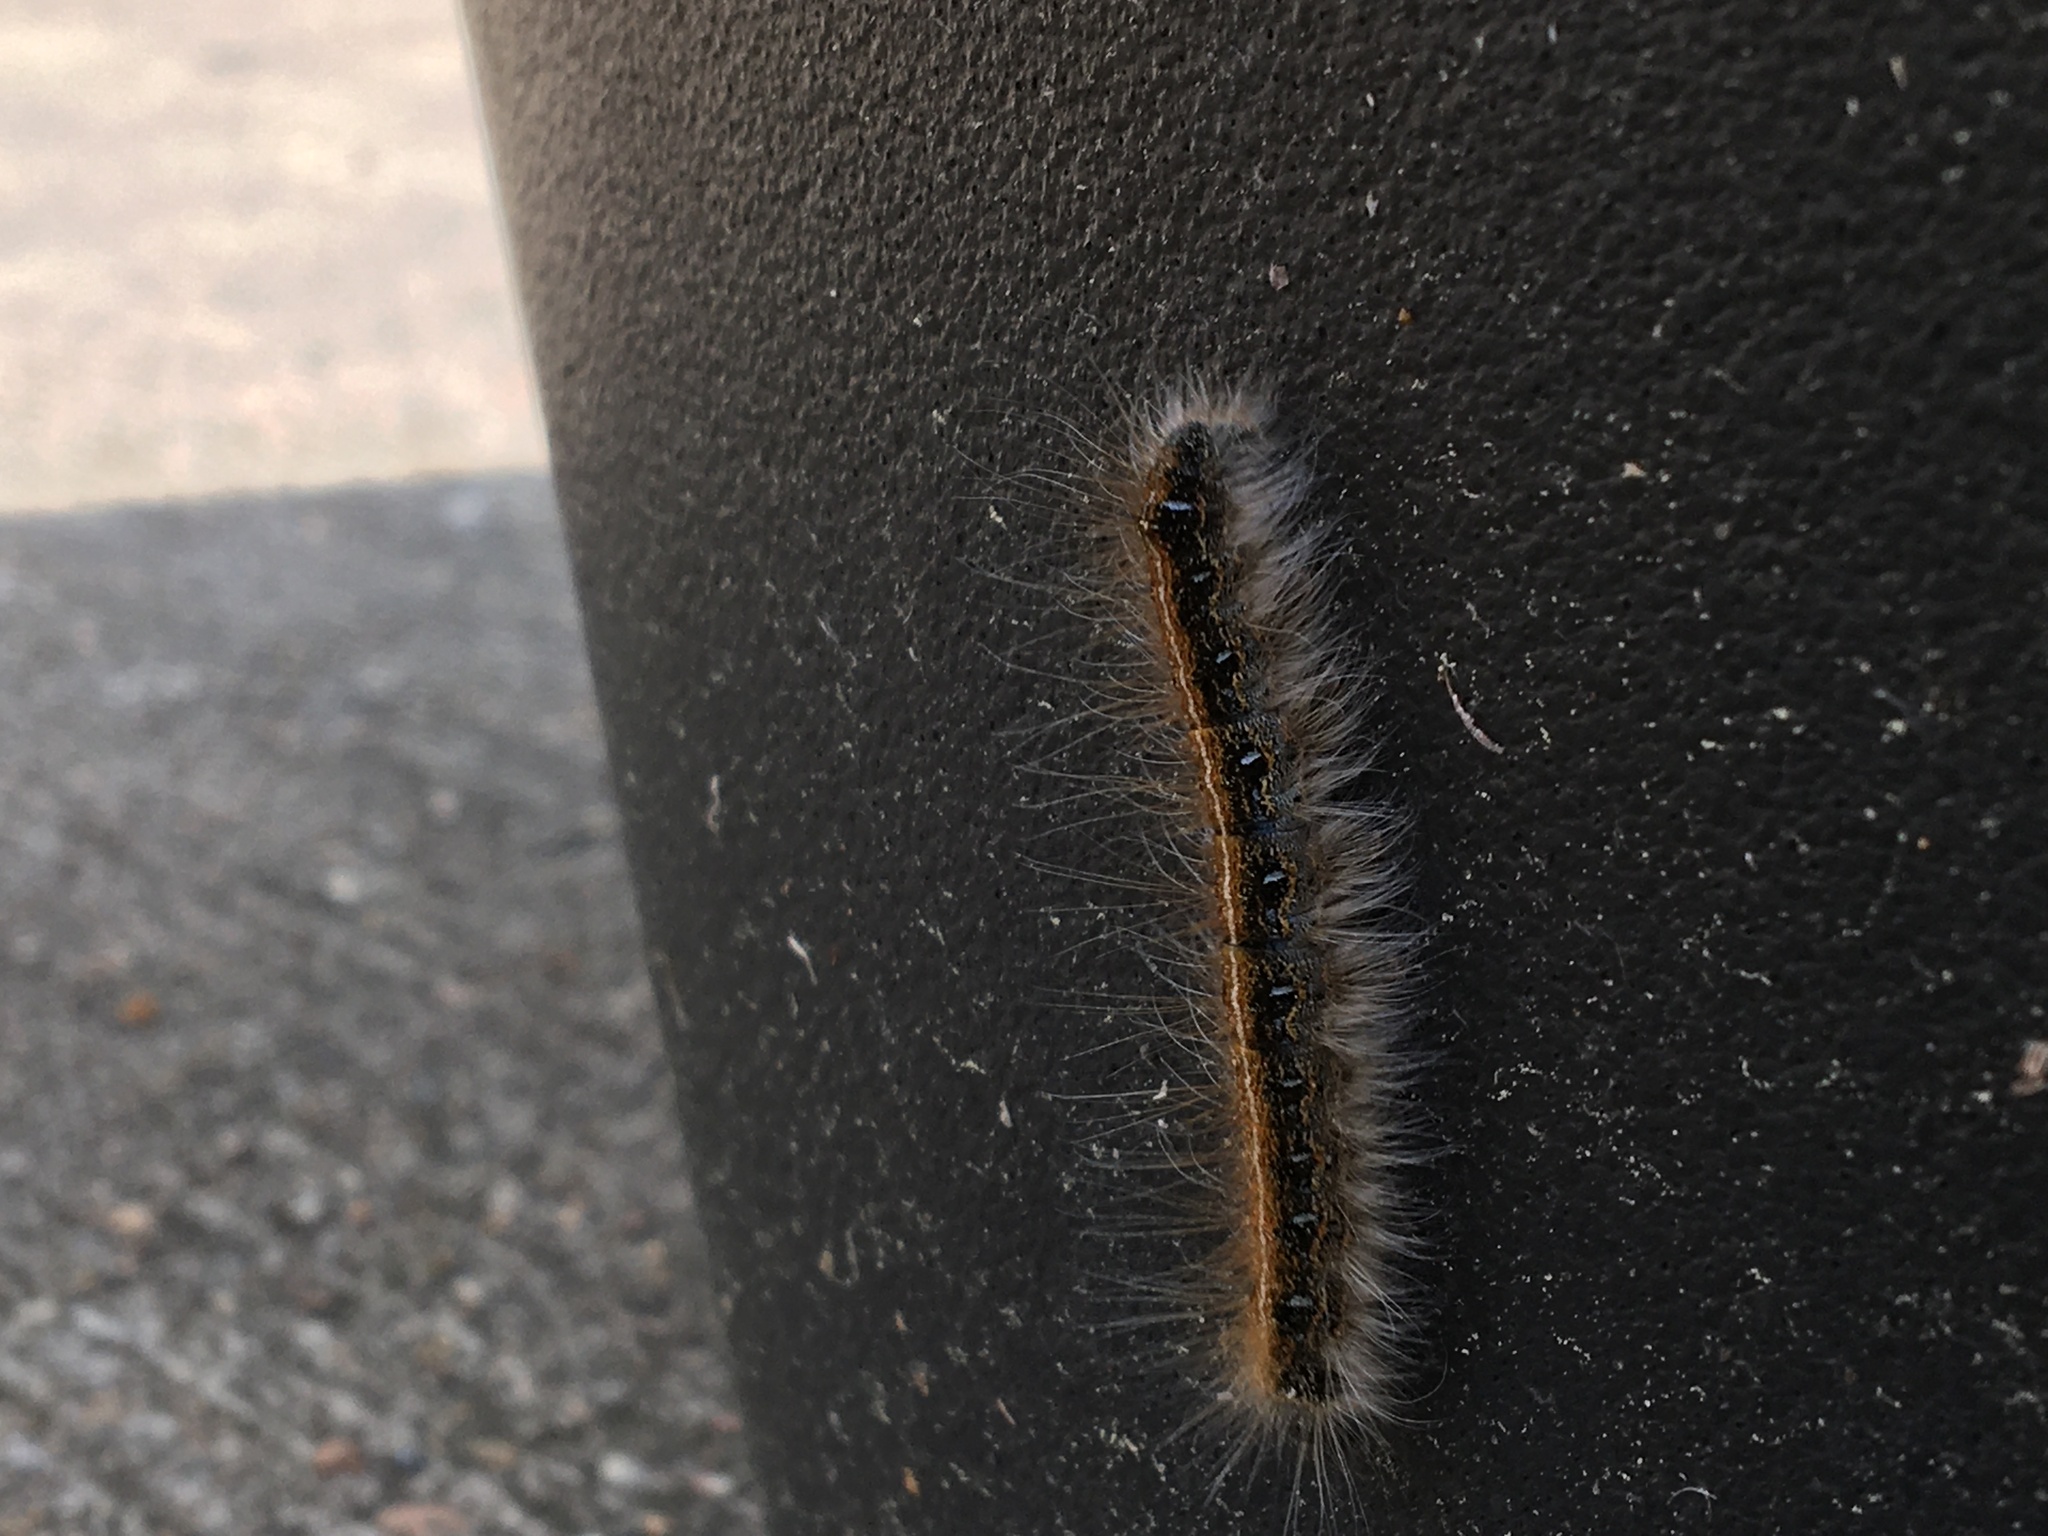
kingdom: Animalia
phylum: Arthropoda
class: Insecta
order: Lepidoptera
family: Lasiocampidae
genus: Malacosoma
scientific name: Malacosoma americana
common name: Eastern tent caterpillar moth
